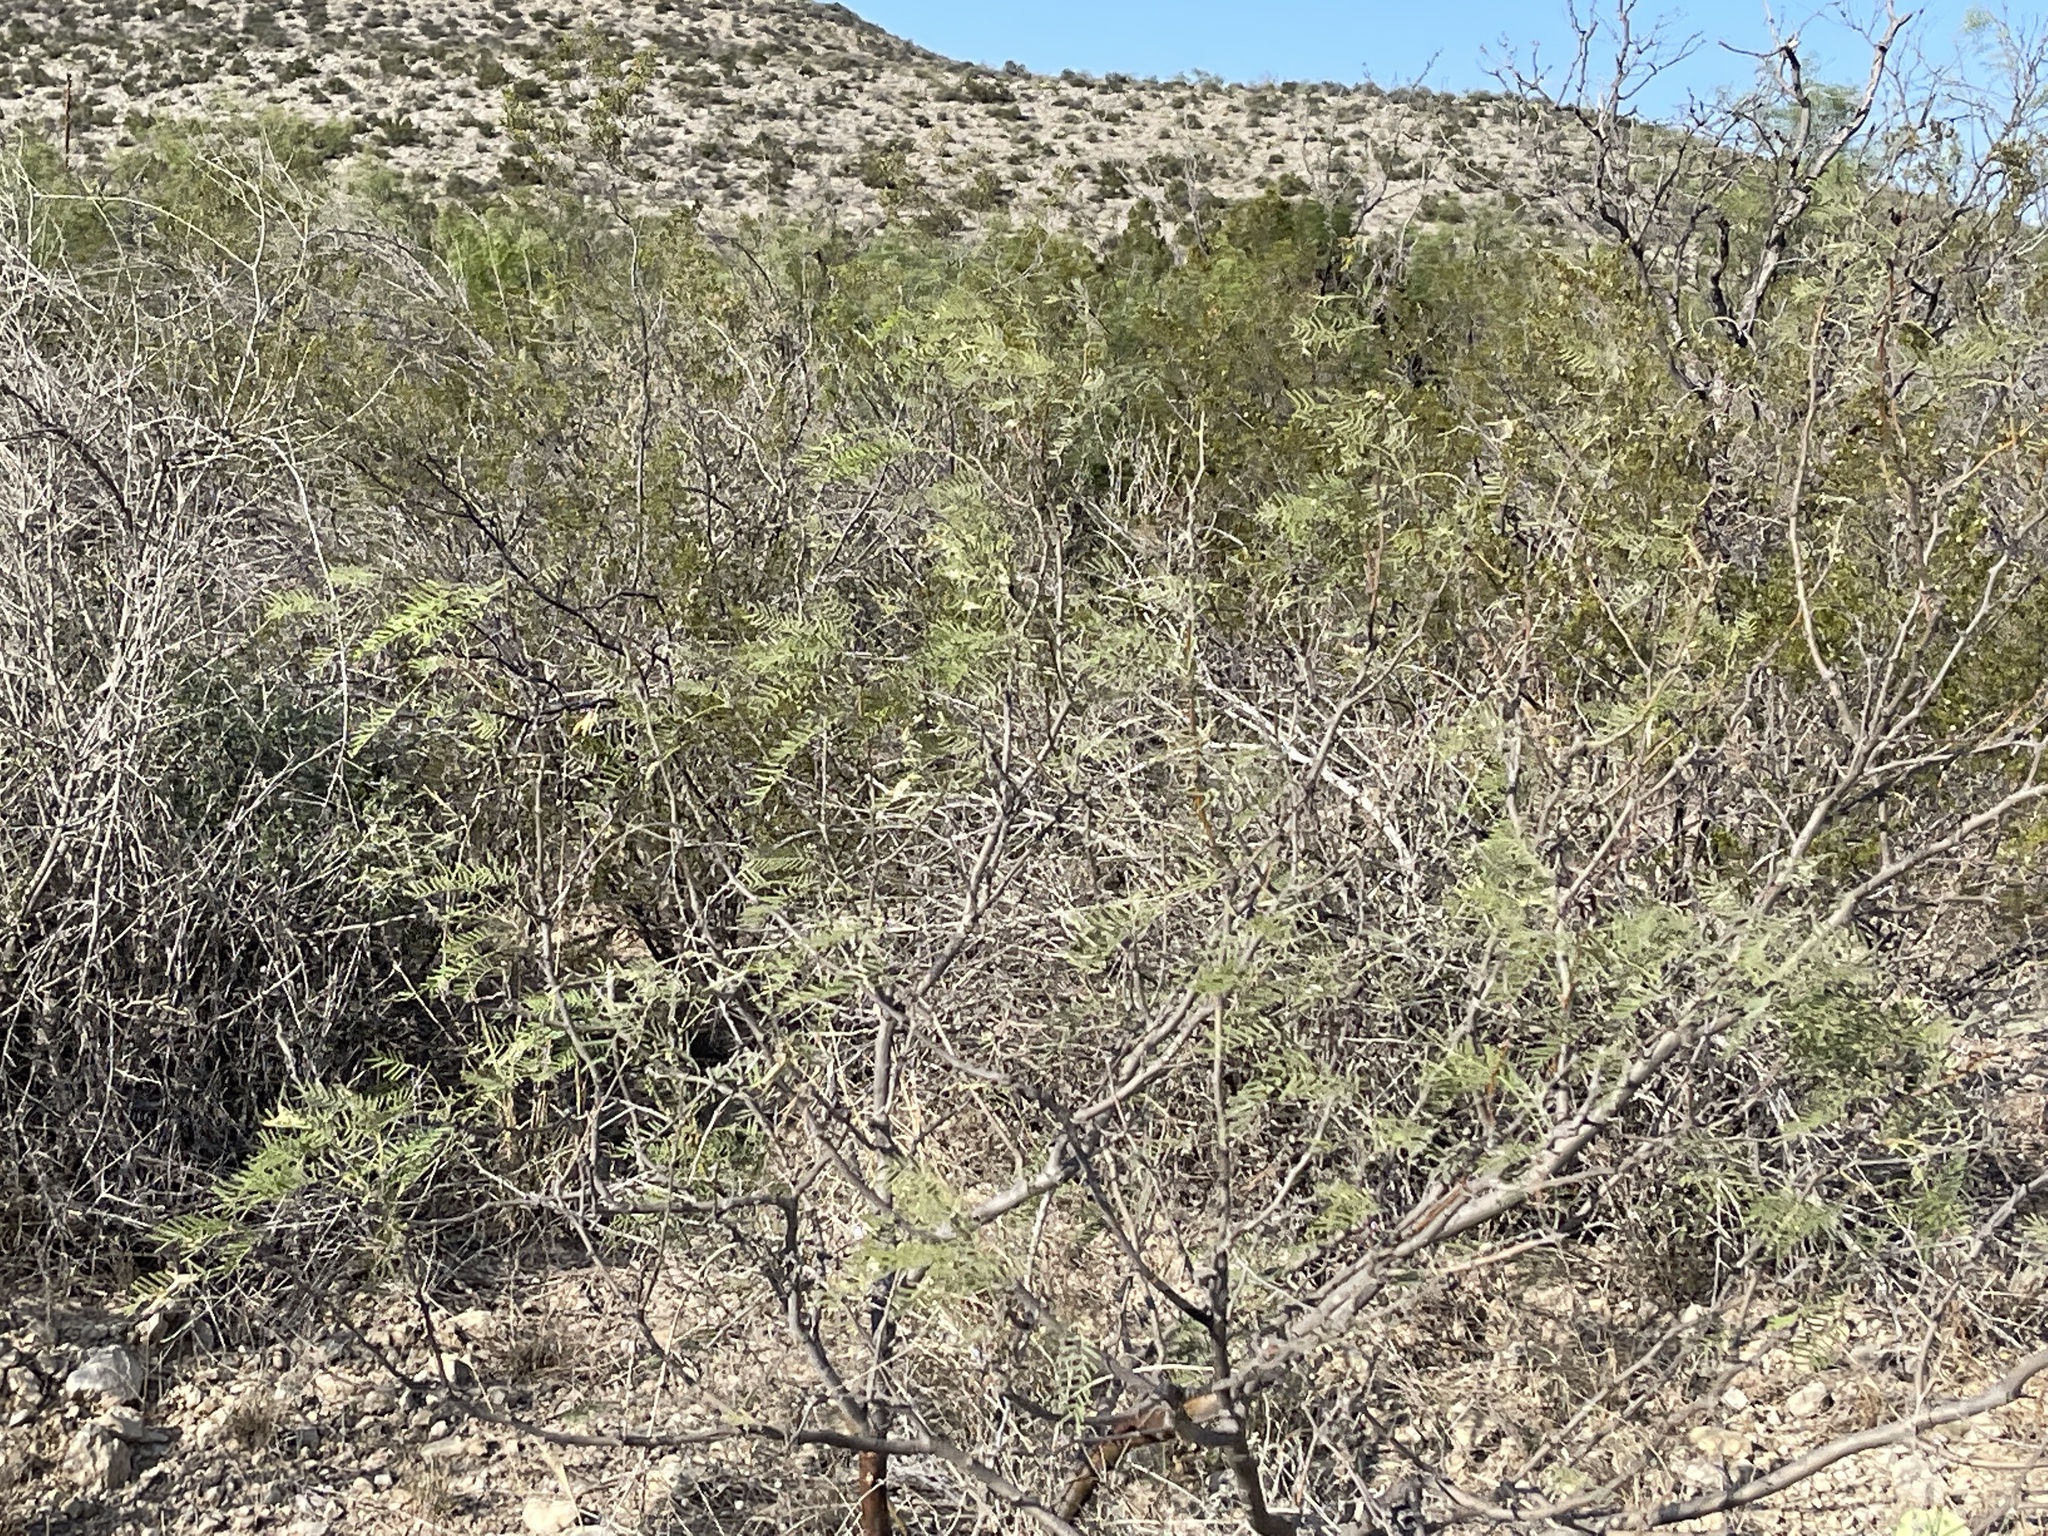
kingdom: Plantae
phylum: Tracheophyta
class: Magnoliopsida
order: Zygophyllales
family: Zygophyllaceae
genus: Larrea
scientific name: Larrea tridentata
